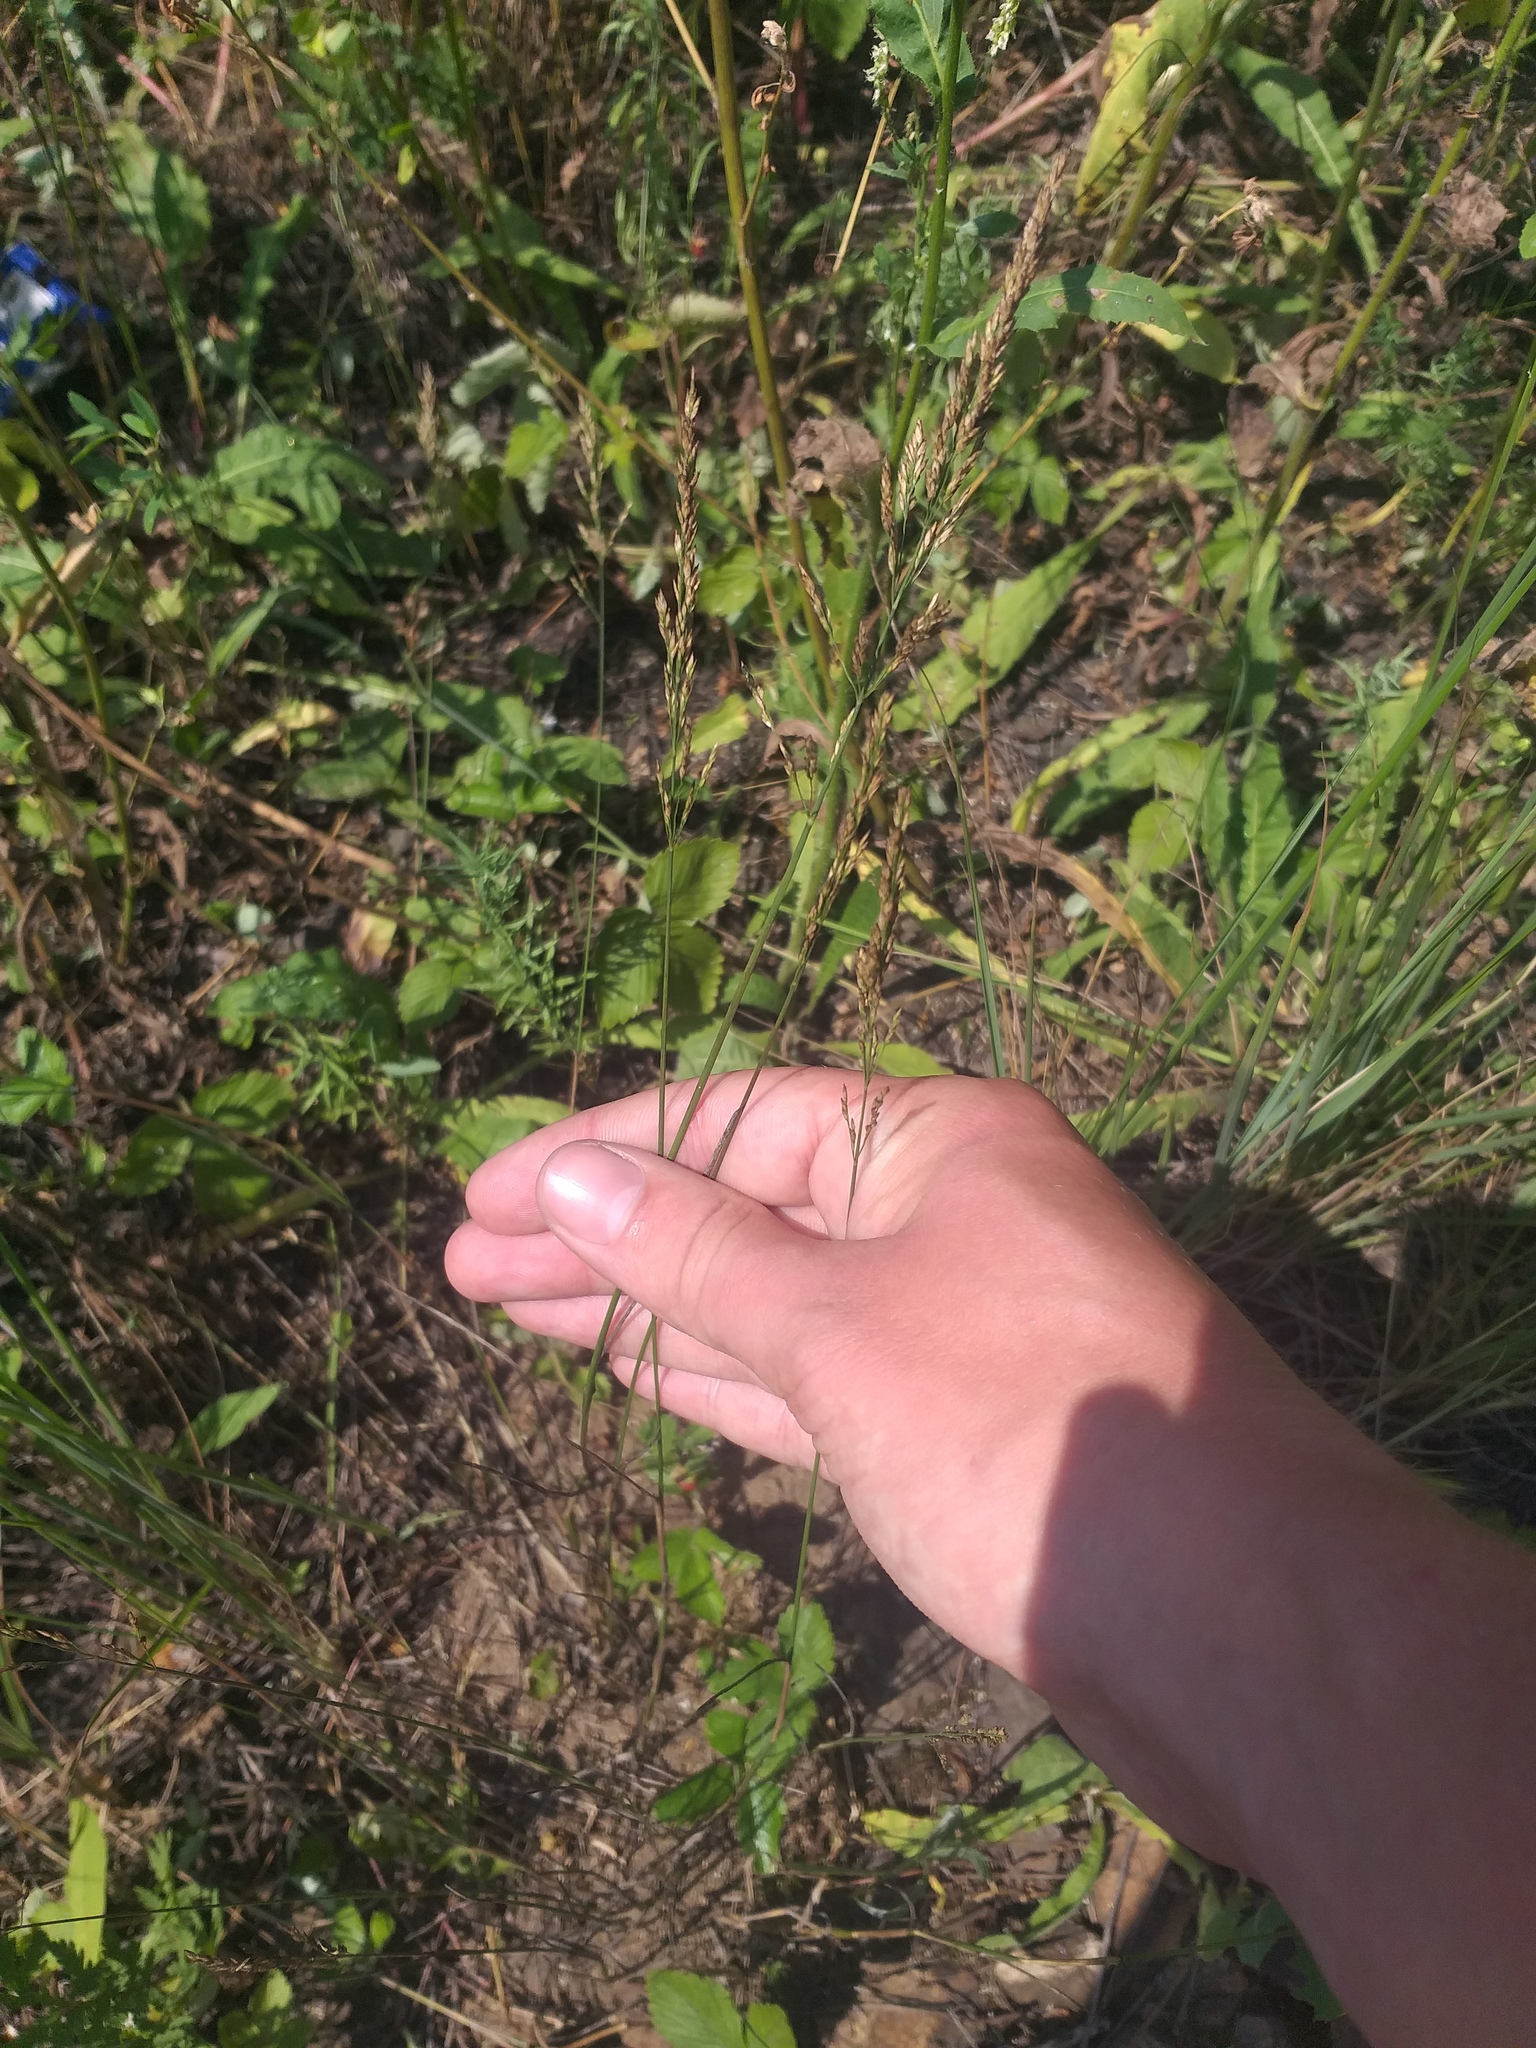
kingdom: Plantae
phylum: Tracheophyta
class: Liliopsida
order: Poales
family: Poaceae
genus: Poa
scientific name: Poa compressa
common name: Canada bluegrass
